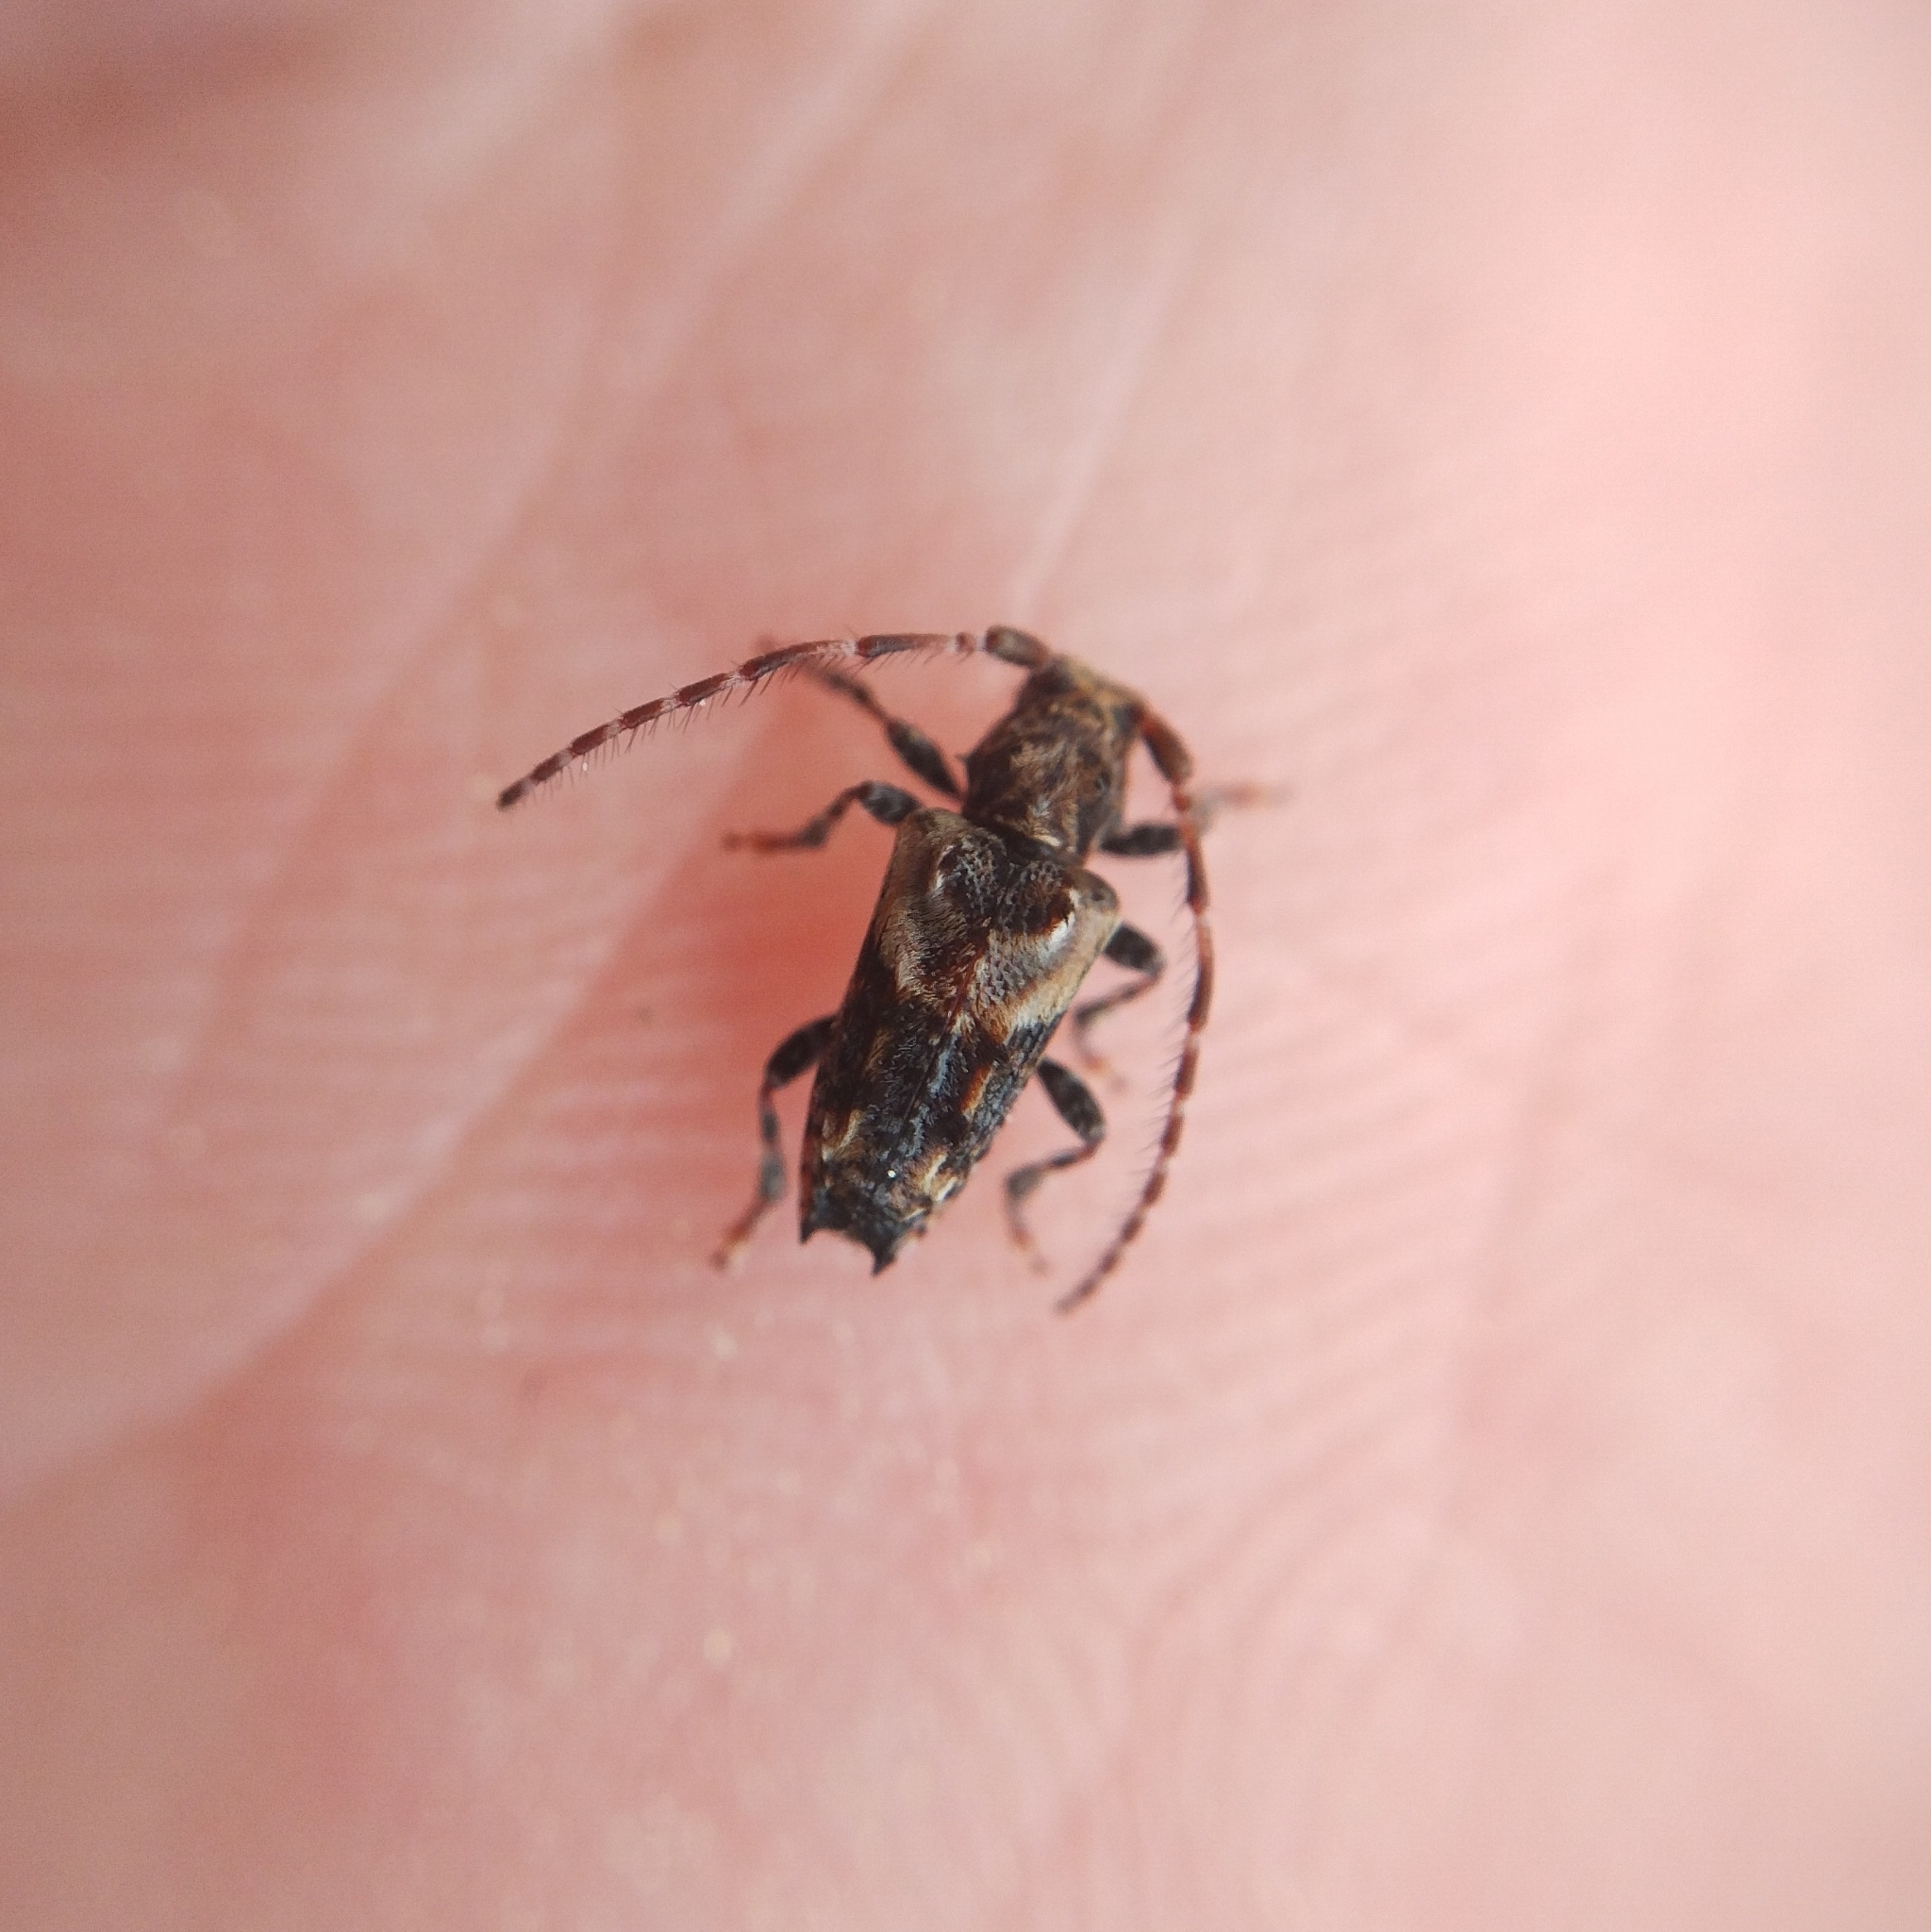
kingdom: Animalia
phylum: Arthropoda
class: Insecta
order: Coleoptera
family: Cerambycidae
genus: Pogonocherus
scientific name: Pogonocherus hispidus
